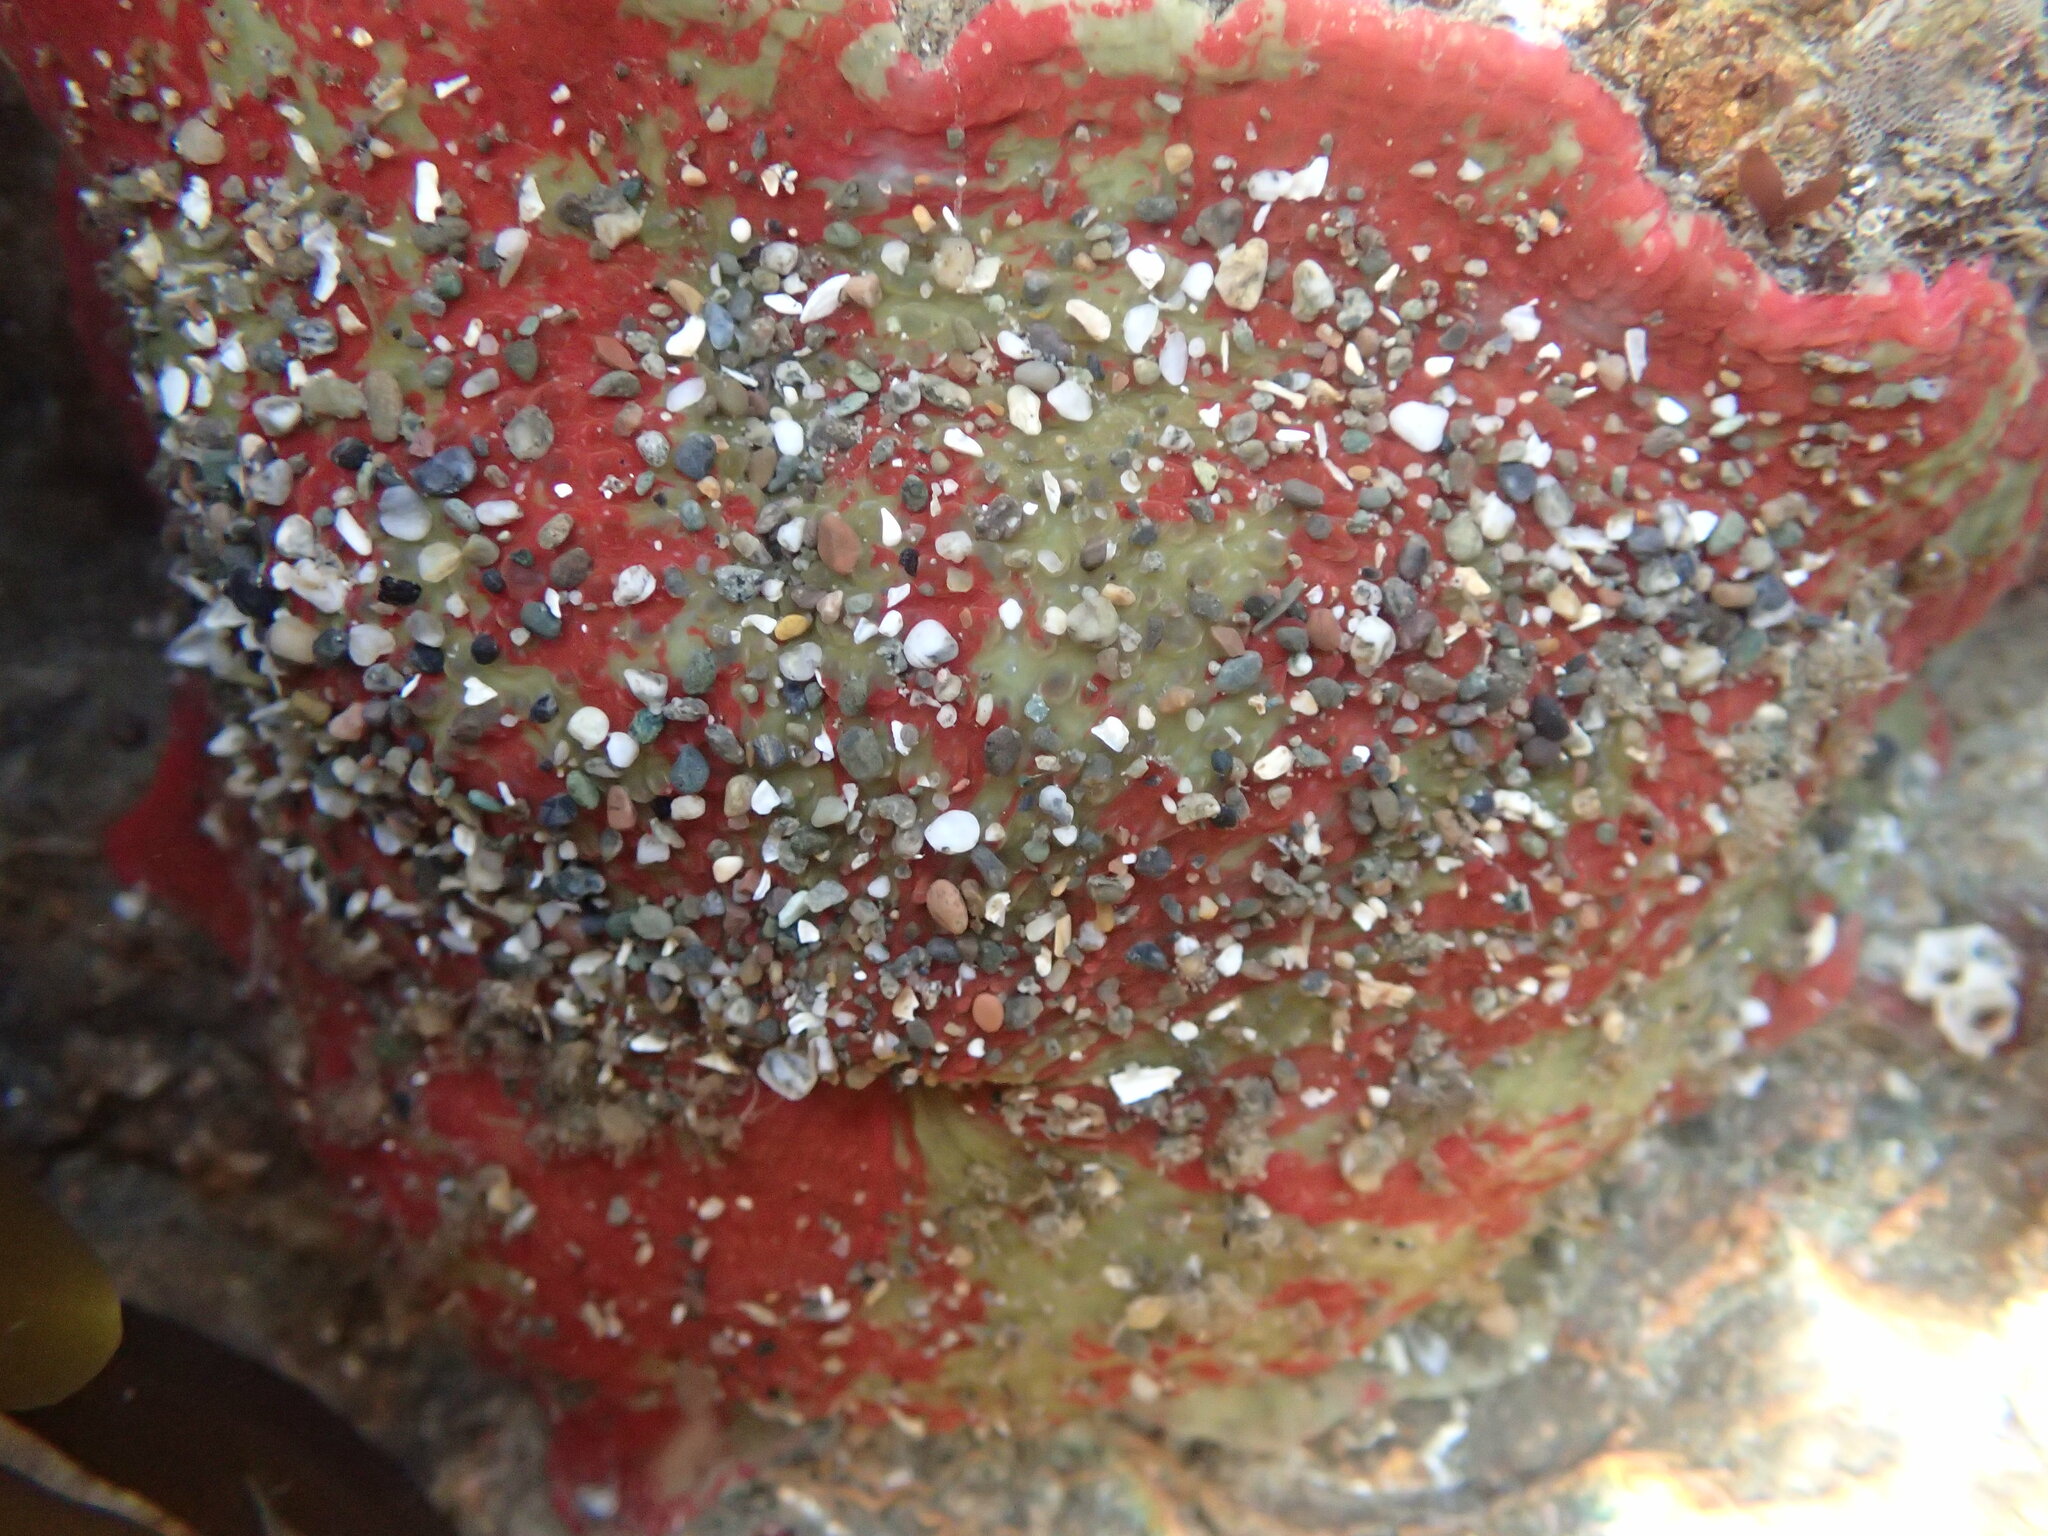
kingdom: Animalia
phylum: Cnidaria
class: Anthozoa
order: Actiniaria
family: Actiniidae
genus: Urticina
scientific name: Urticina grebelnyi
